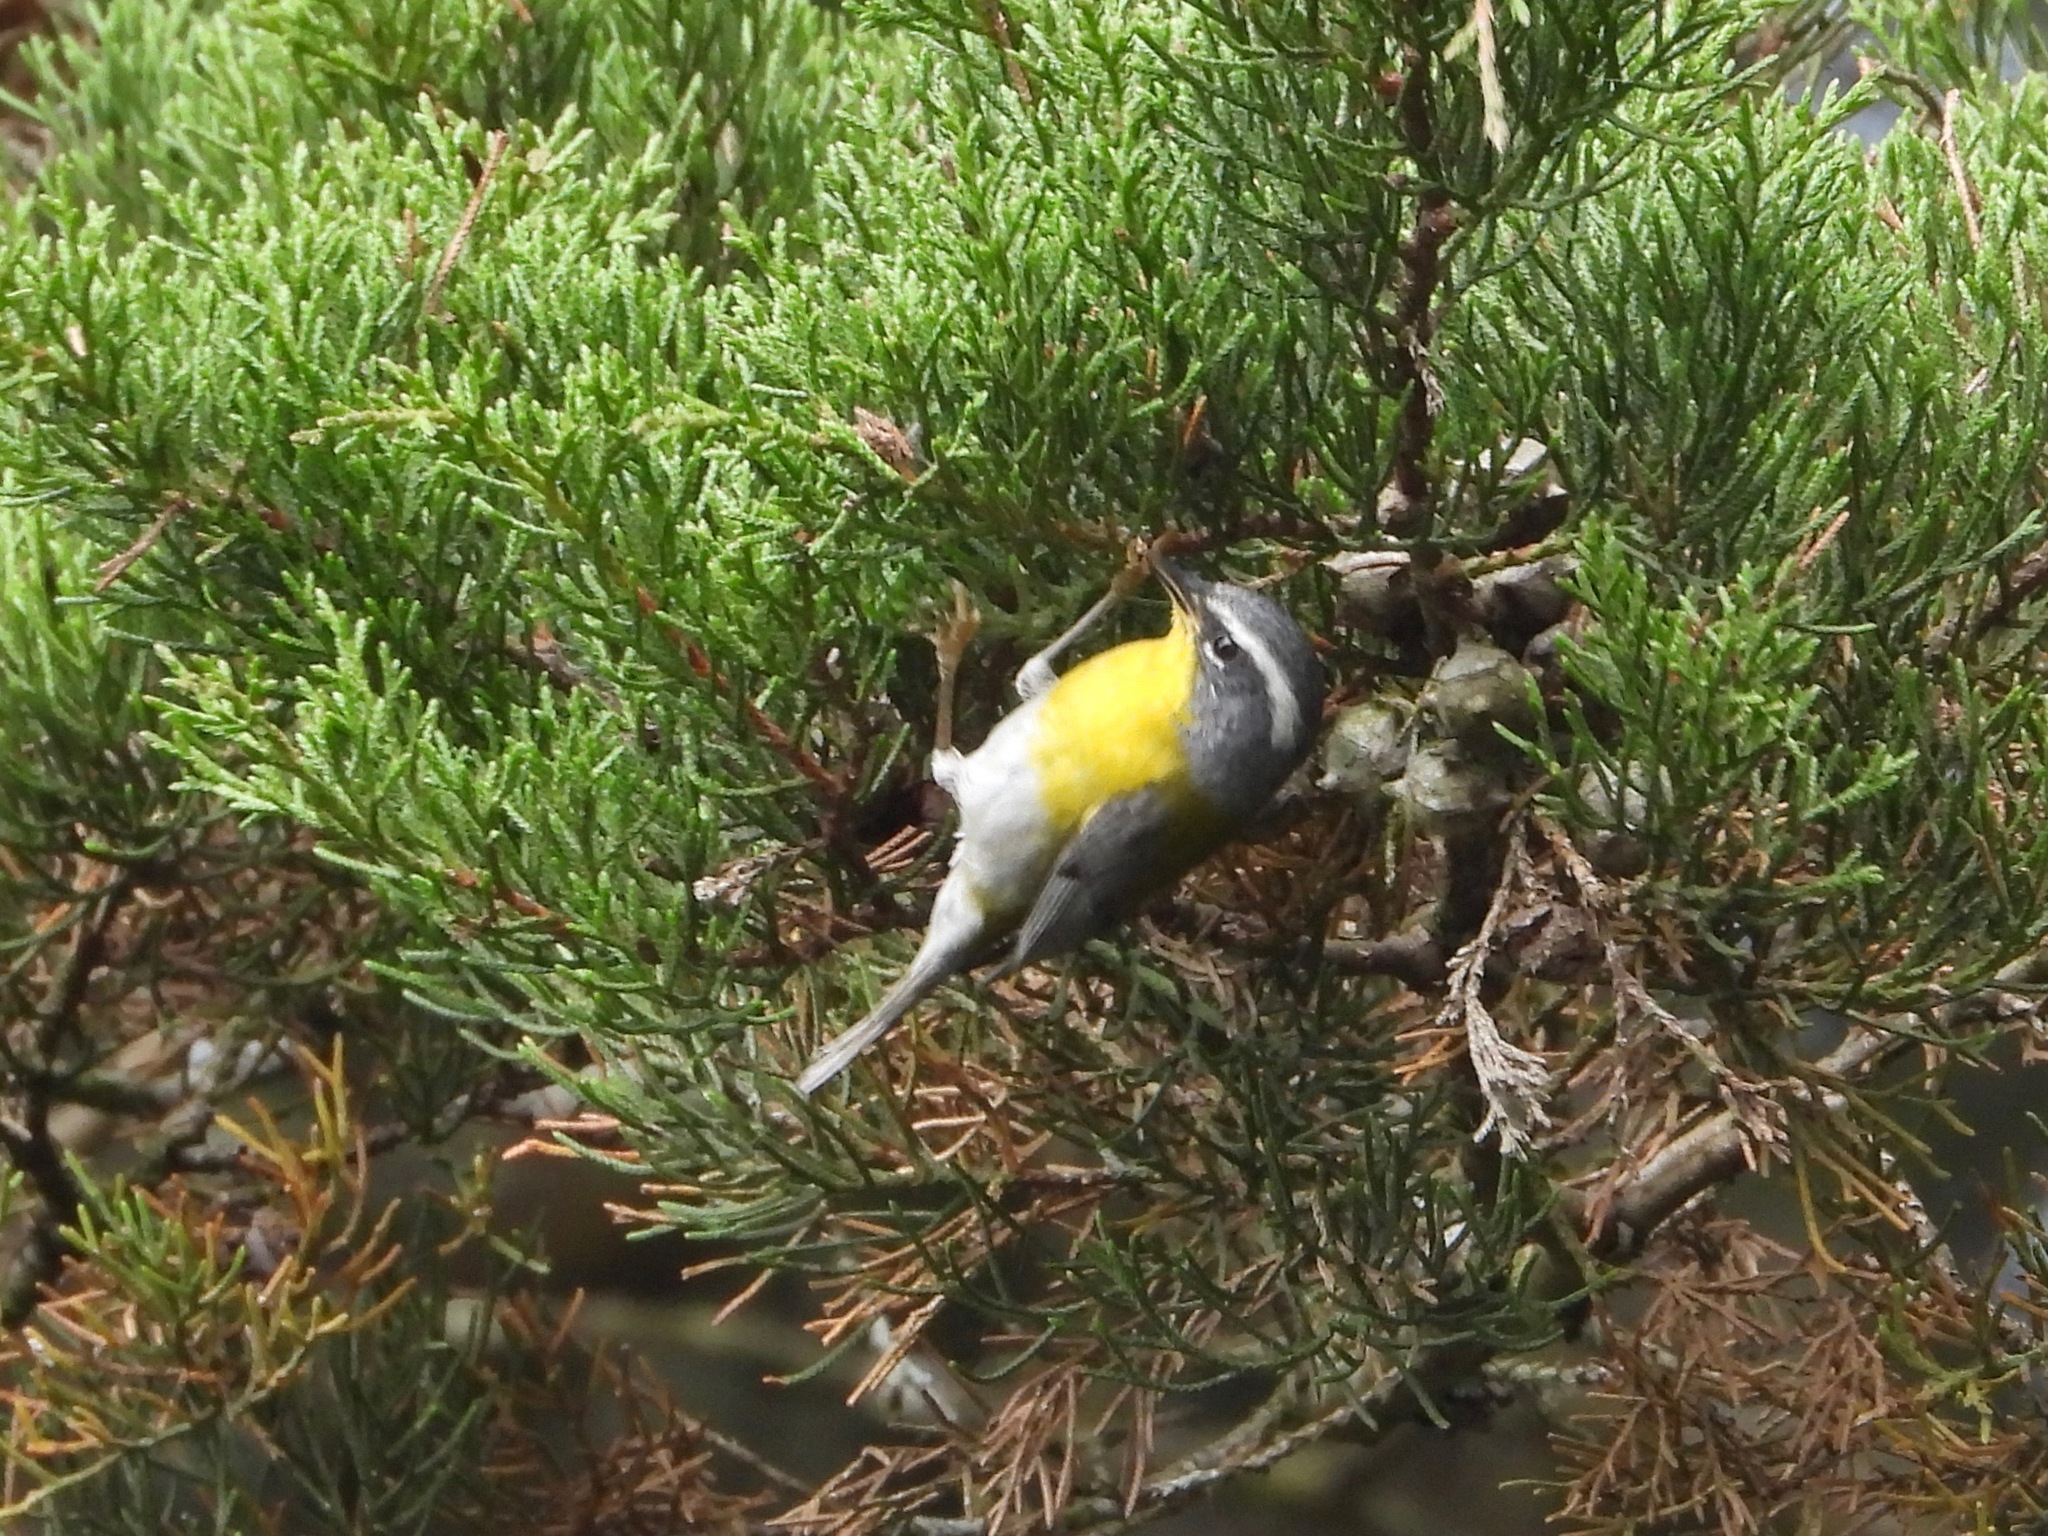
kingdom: Animalia
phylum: Chordata
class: Aves
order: Passeriformes
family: Parulidae
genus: Oreothlypis
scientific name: Oreothlypis superciliosa
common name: Crescent-chested warbler
